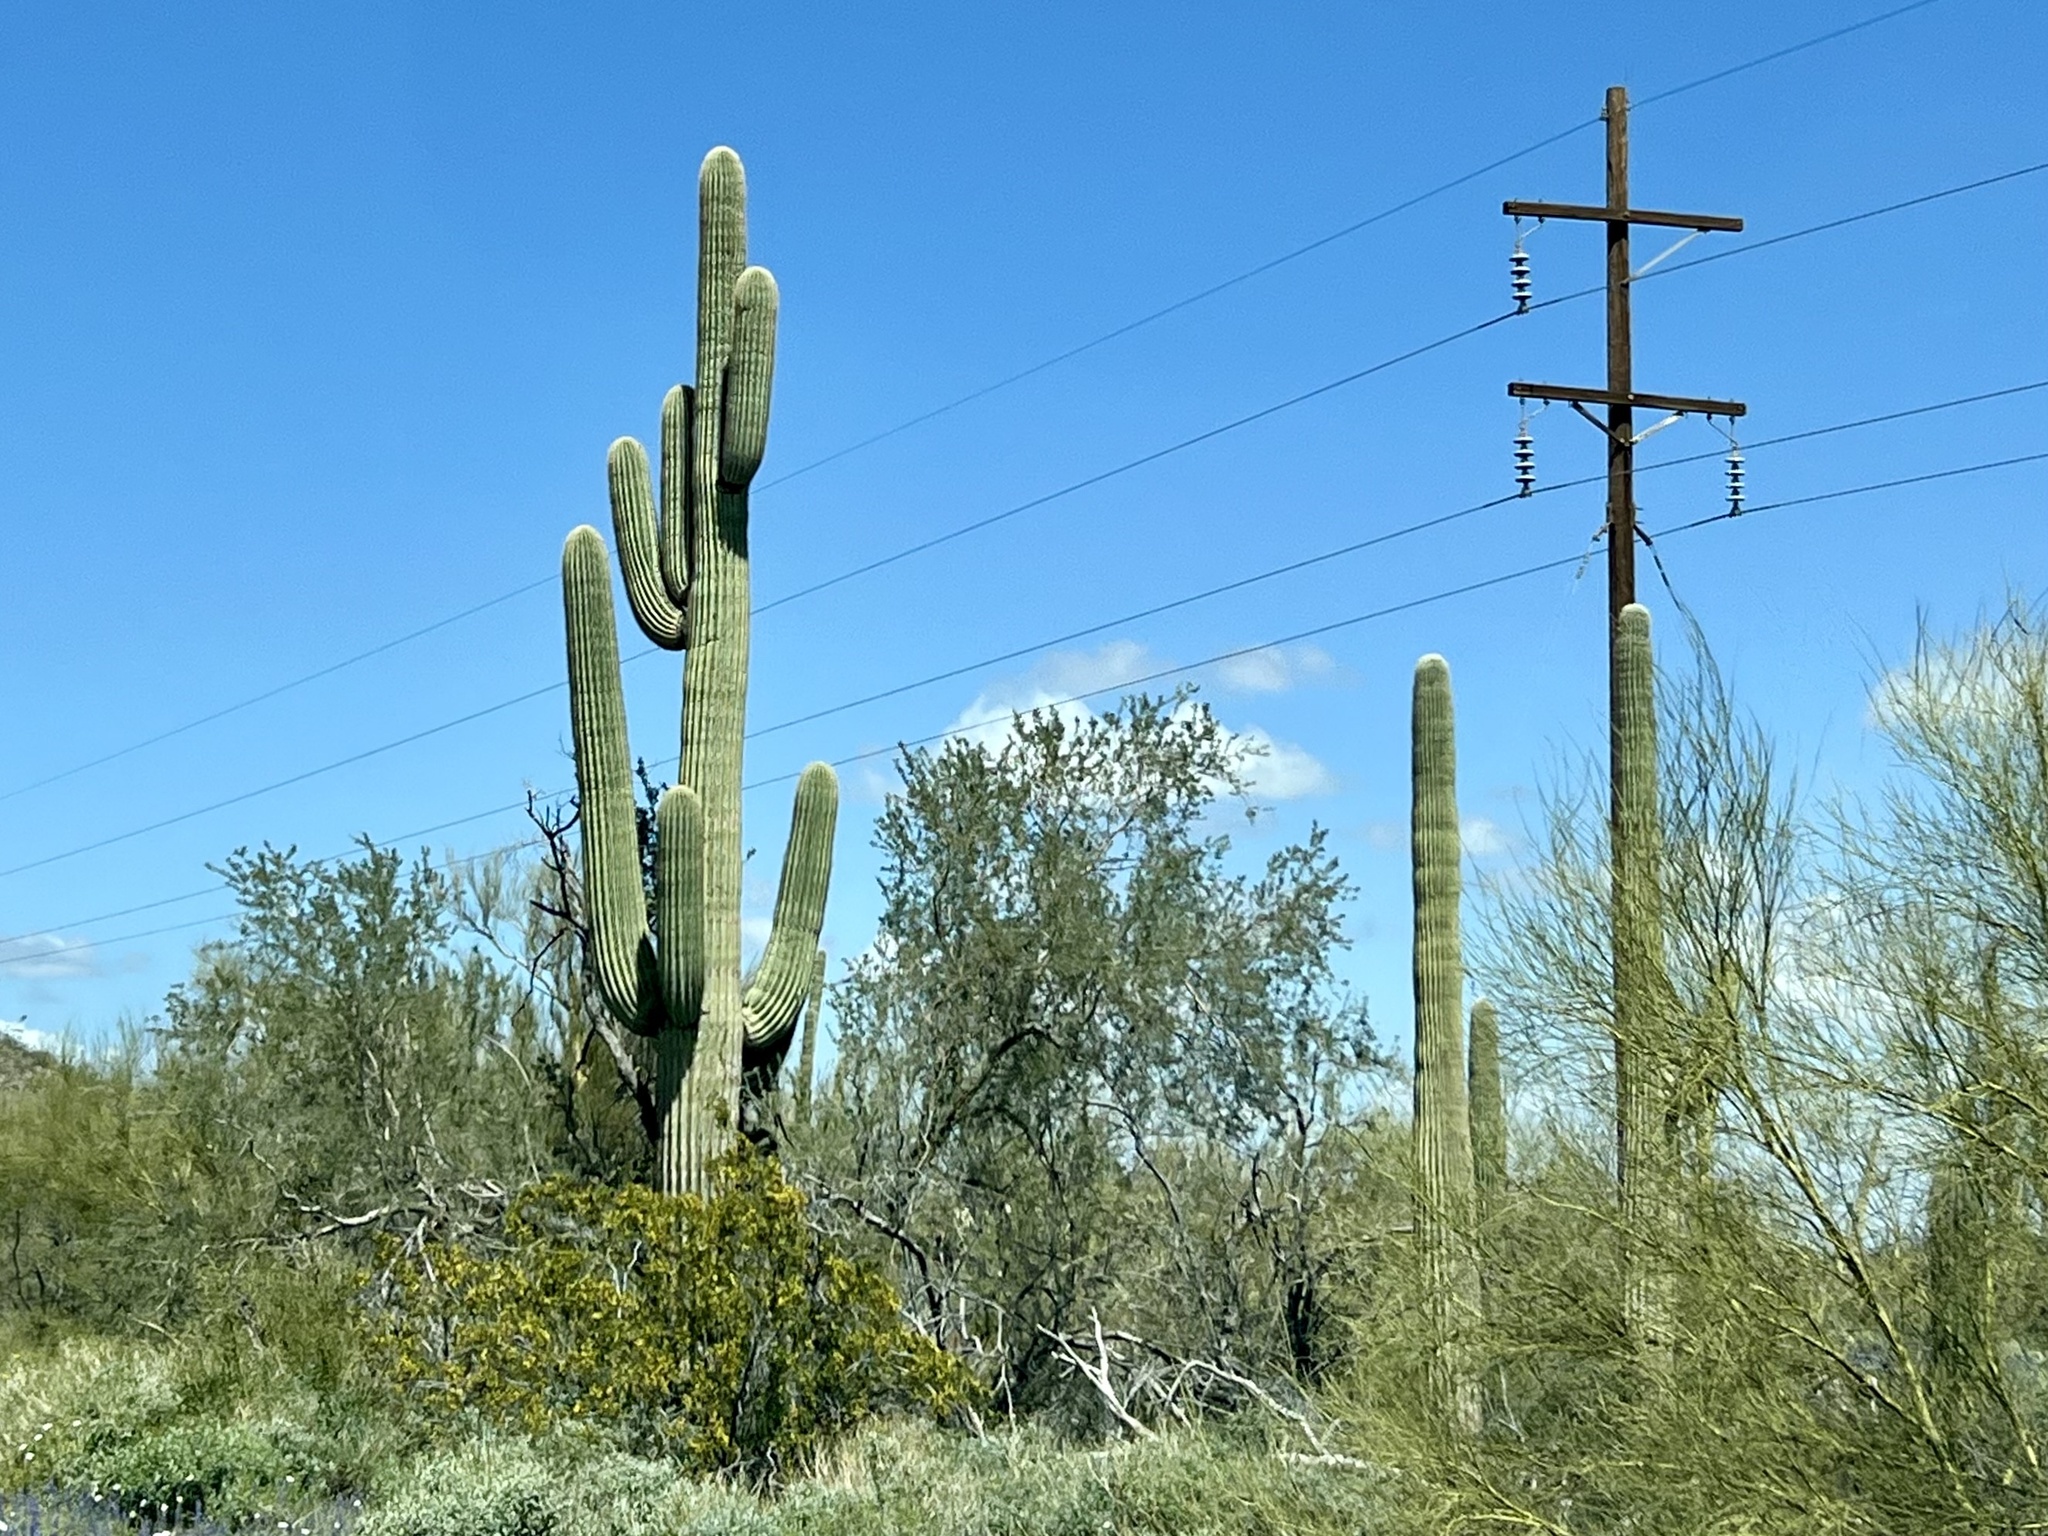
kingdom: Plantae
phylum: Tracheophyta
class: Magnoliopsida
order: Caryophyllales
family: Cactaceae
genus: Carnegiea
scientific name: Carnegiea gigantea
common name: Saguaro
